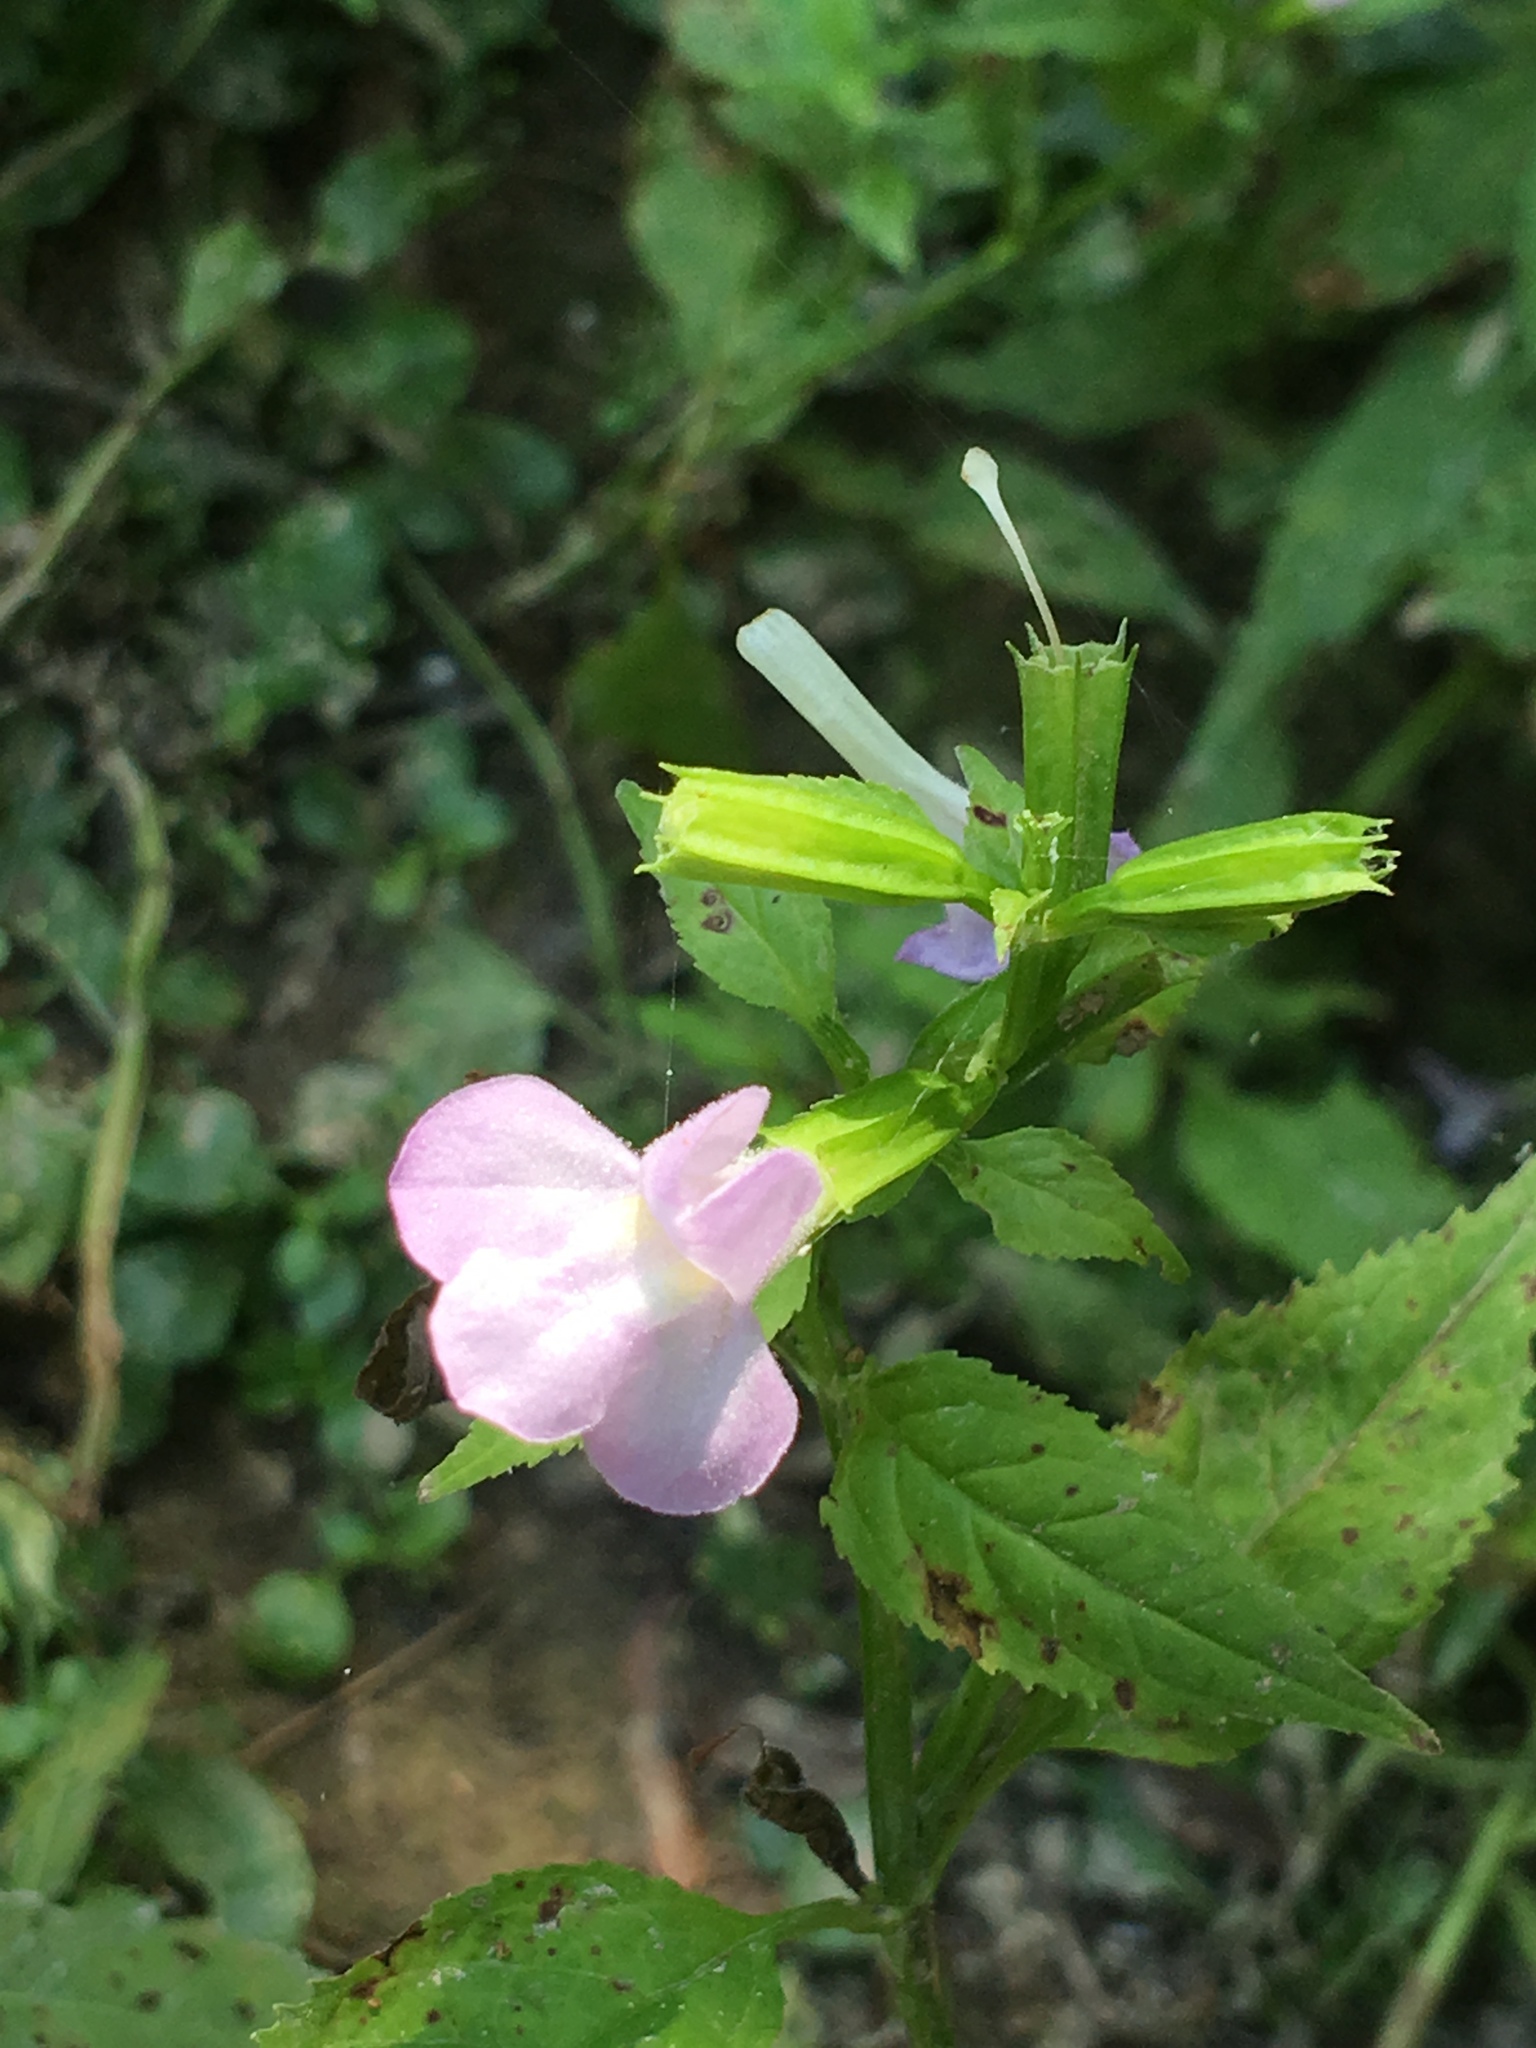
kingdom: Plantae
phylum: Tracheophyta
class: Magnoliopsida
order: Lamiales
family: Phrymaceae
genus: Mimulus
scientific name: Mimulus alatus
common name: Sharp-wing monkey-flower
